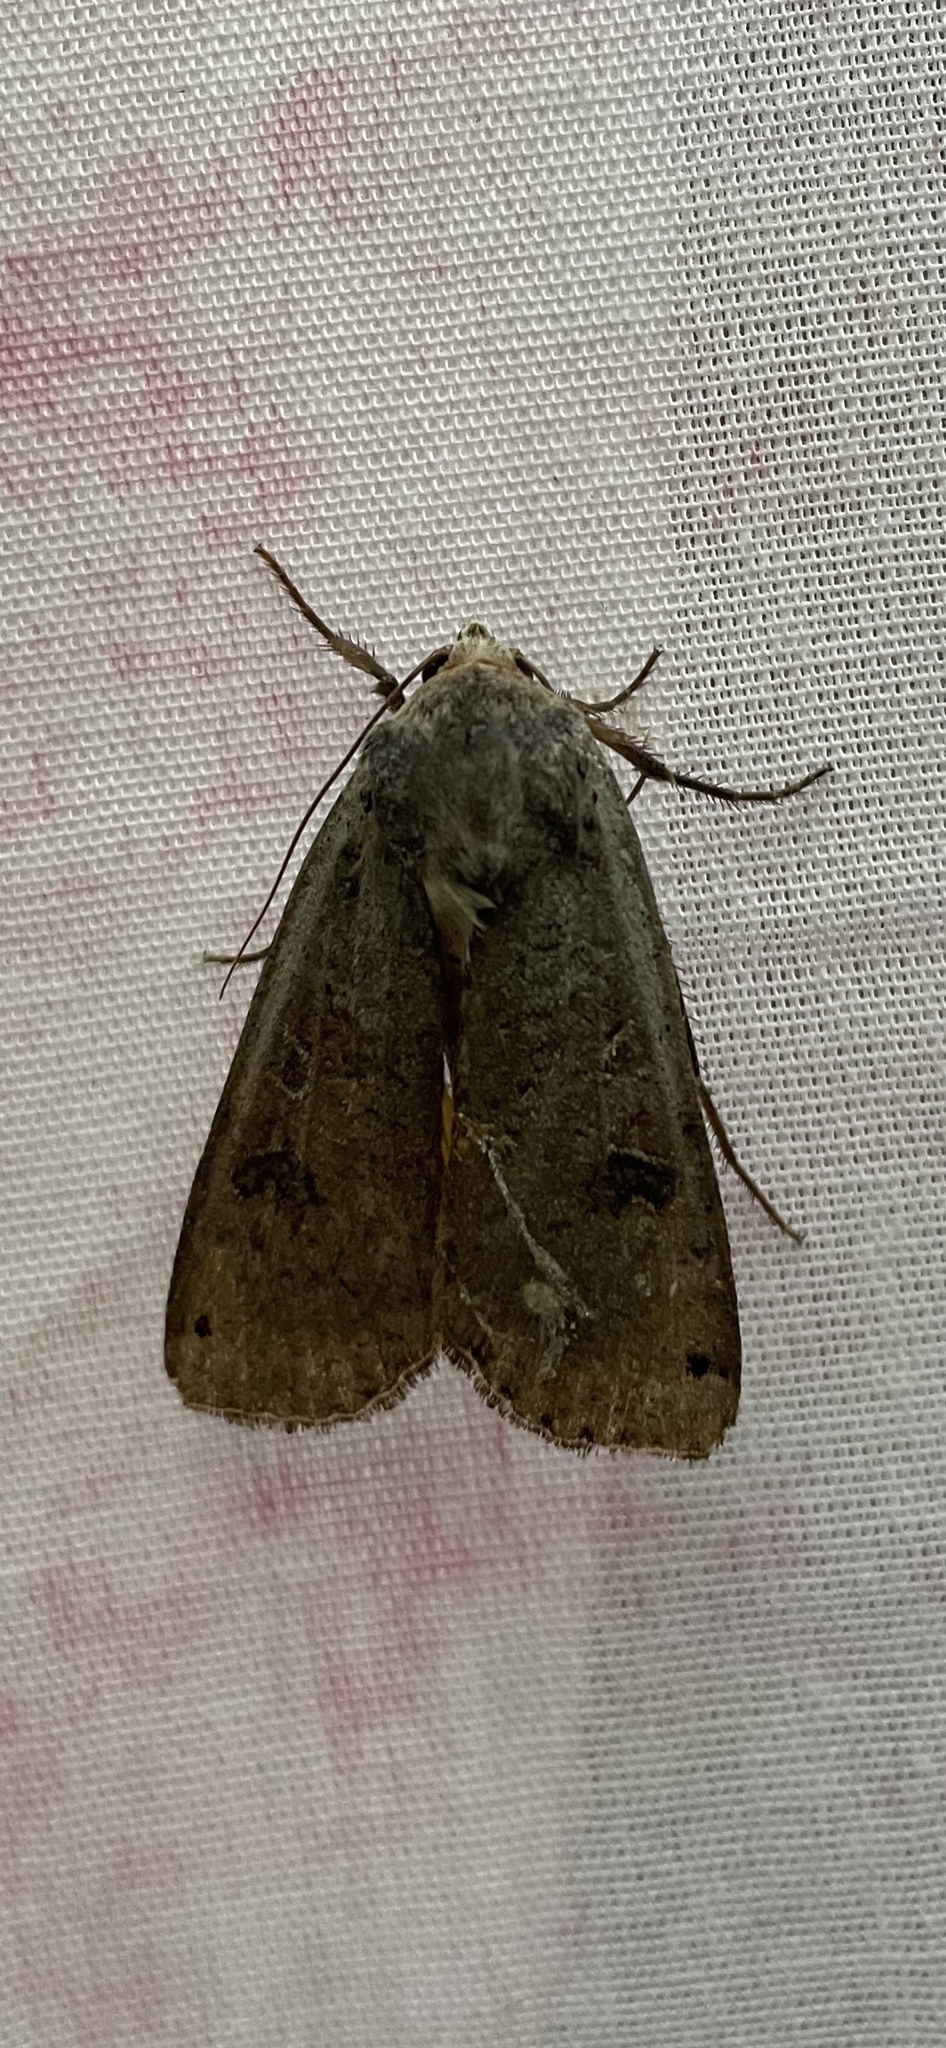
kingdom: Animalia
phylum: Arthropoda
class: Insecta
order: Lepidoptera
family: Noctuidae
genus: Noctua
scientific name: Noctua pronuba
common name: Large yellow underwing
